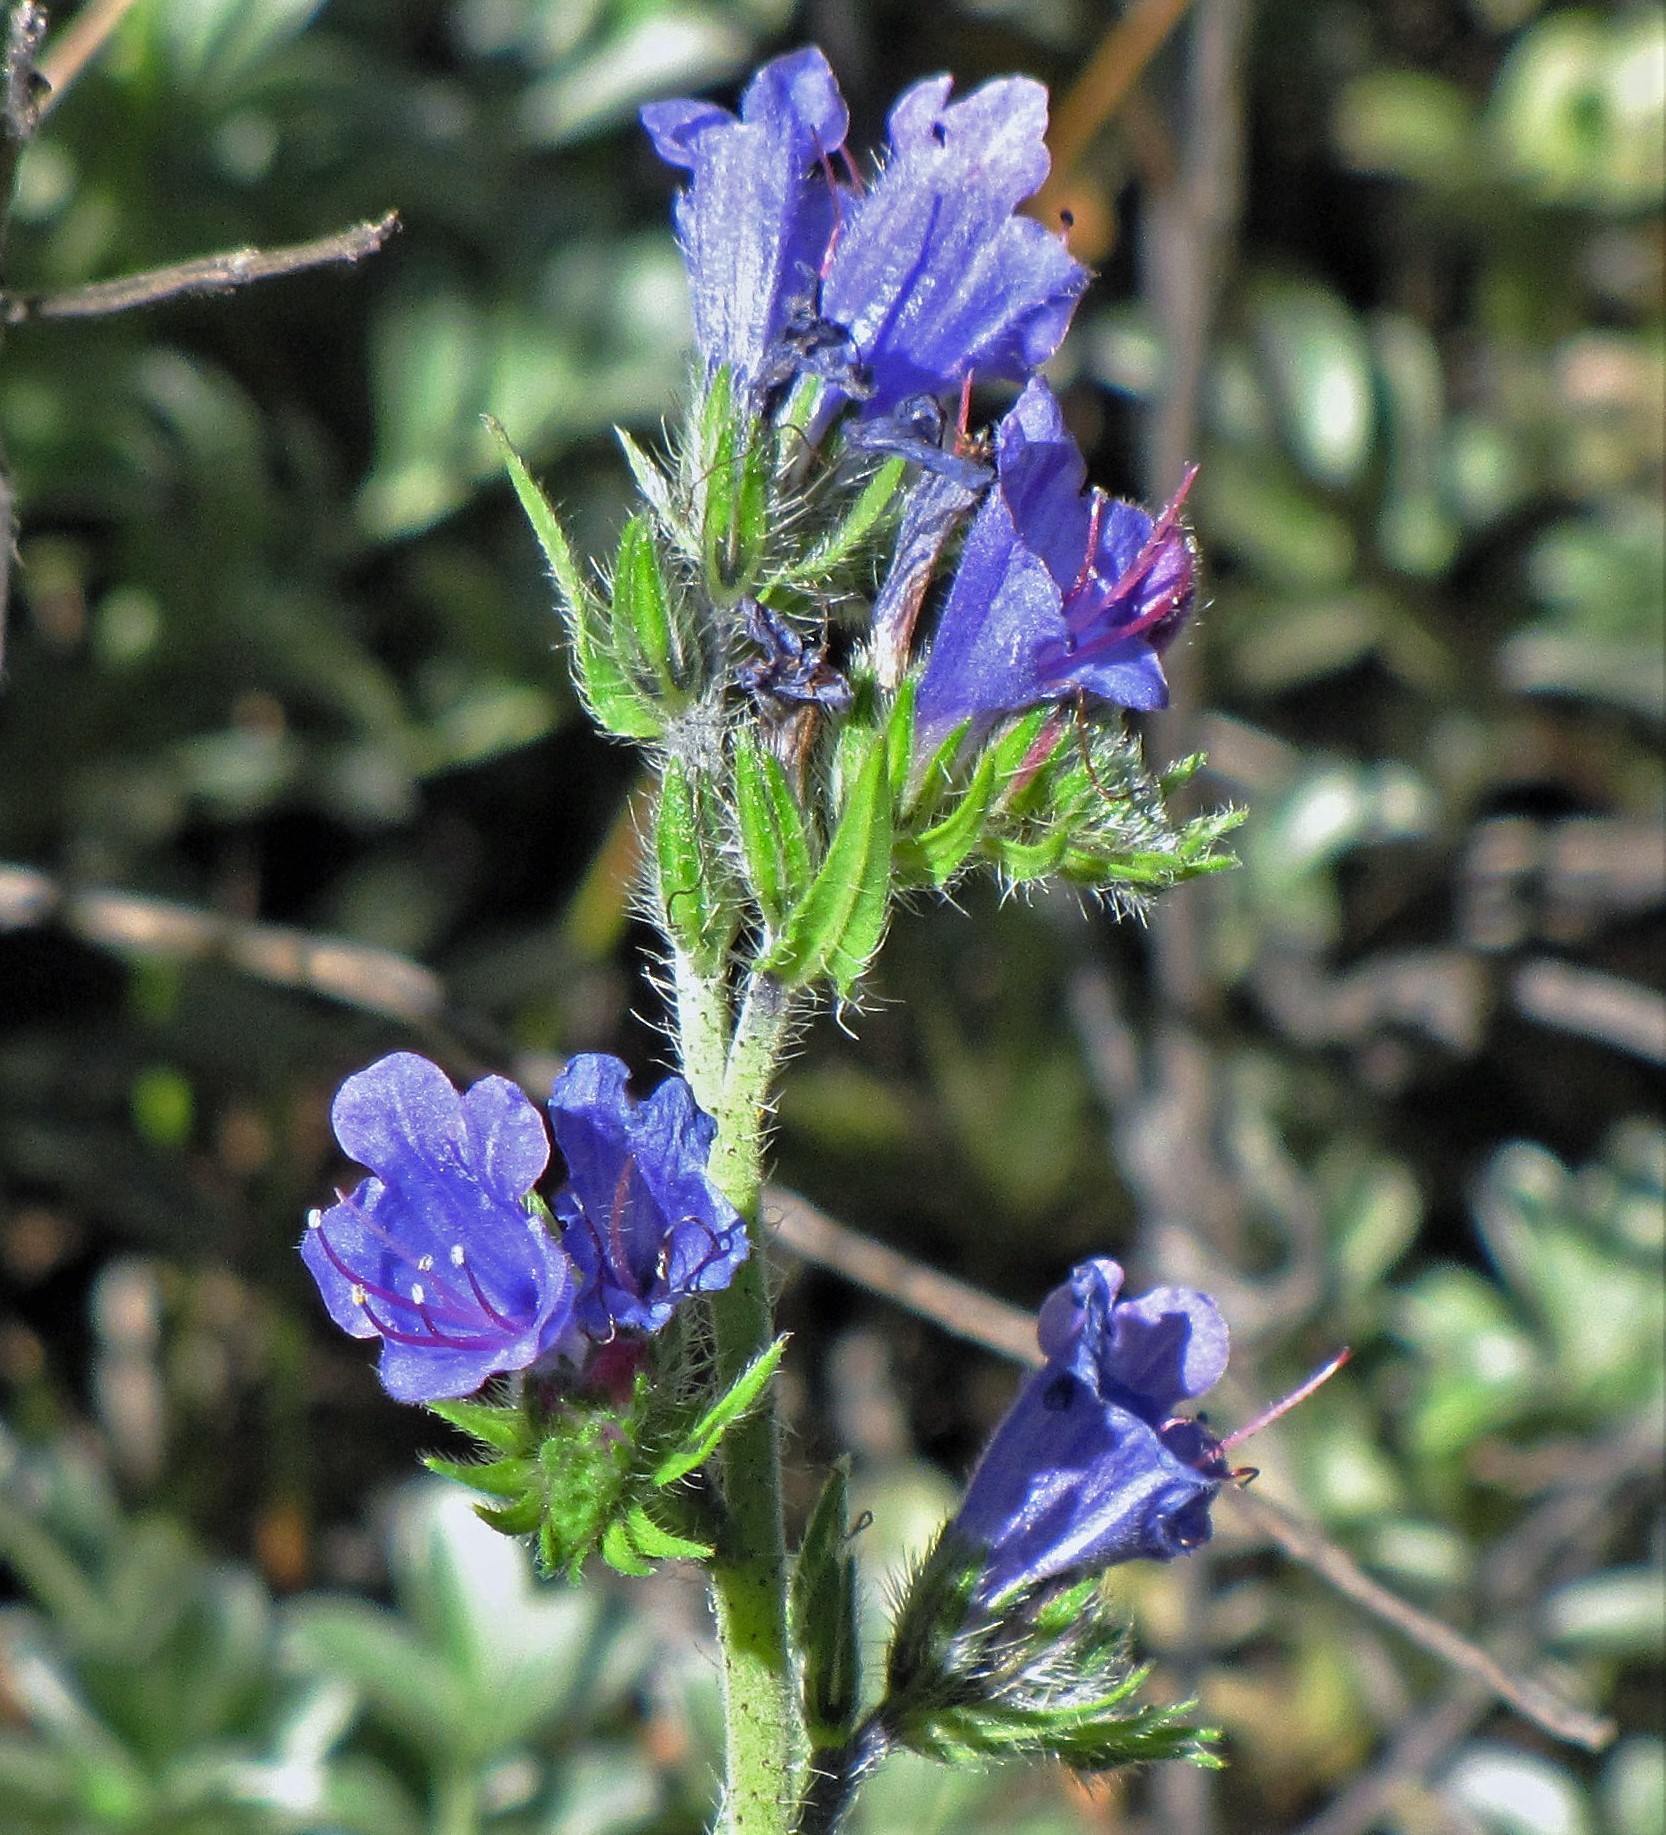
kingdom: Plantae
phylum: Tracheophyta
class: Magnoliopsida
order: Boraginales
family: Boraginaceae
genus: Echium
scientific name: Echium vulgare
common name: Common viper's bugloss
